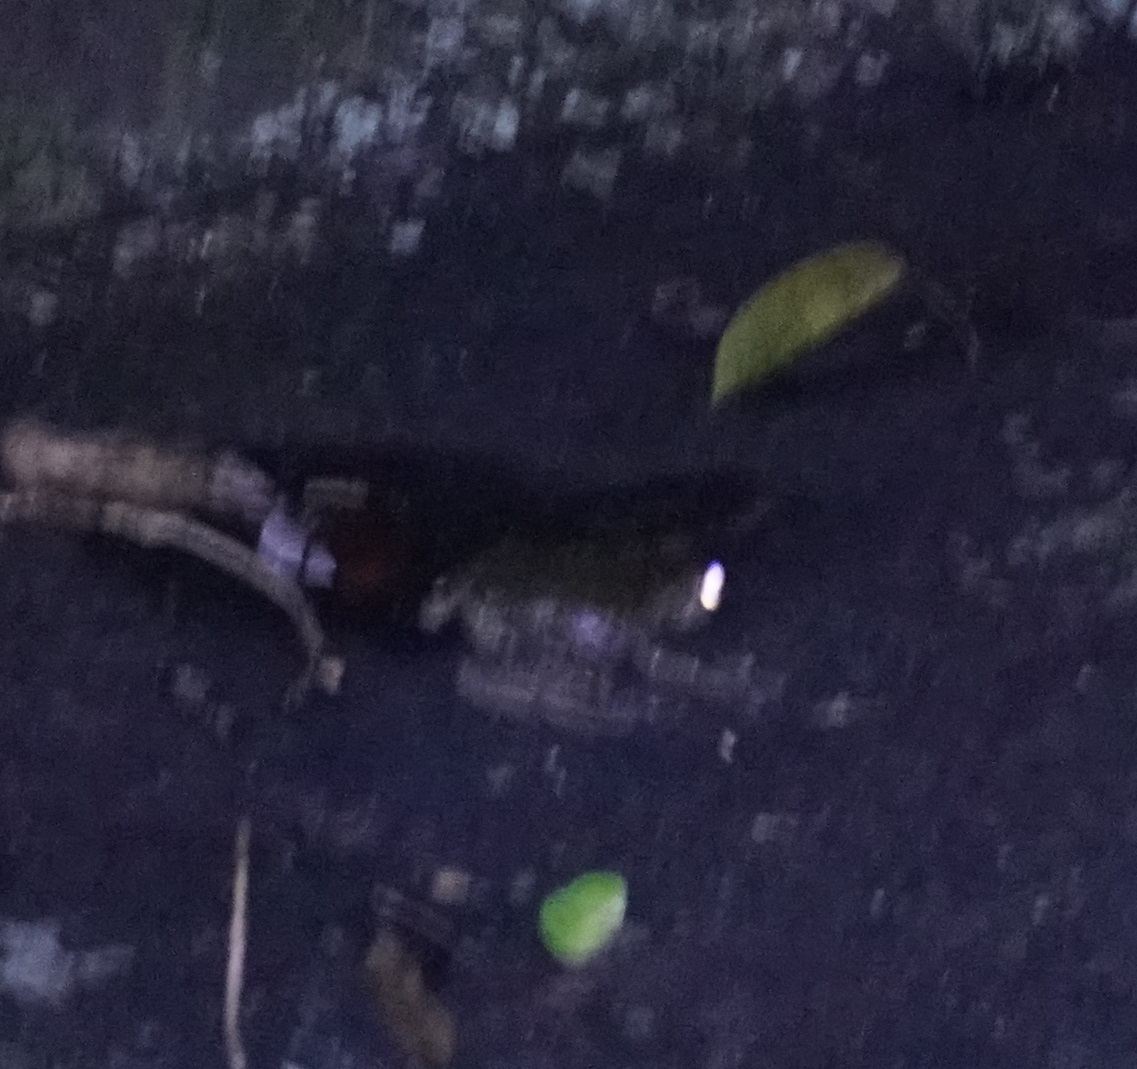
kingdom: Animalia
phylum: Chordata
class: Amphibia
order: Anura
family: Pelodryadidae
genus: Ranoidea
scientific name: Ranoidea nannotis
